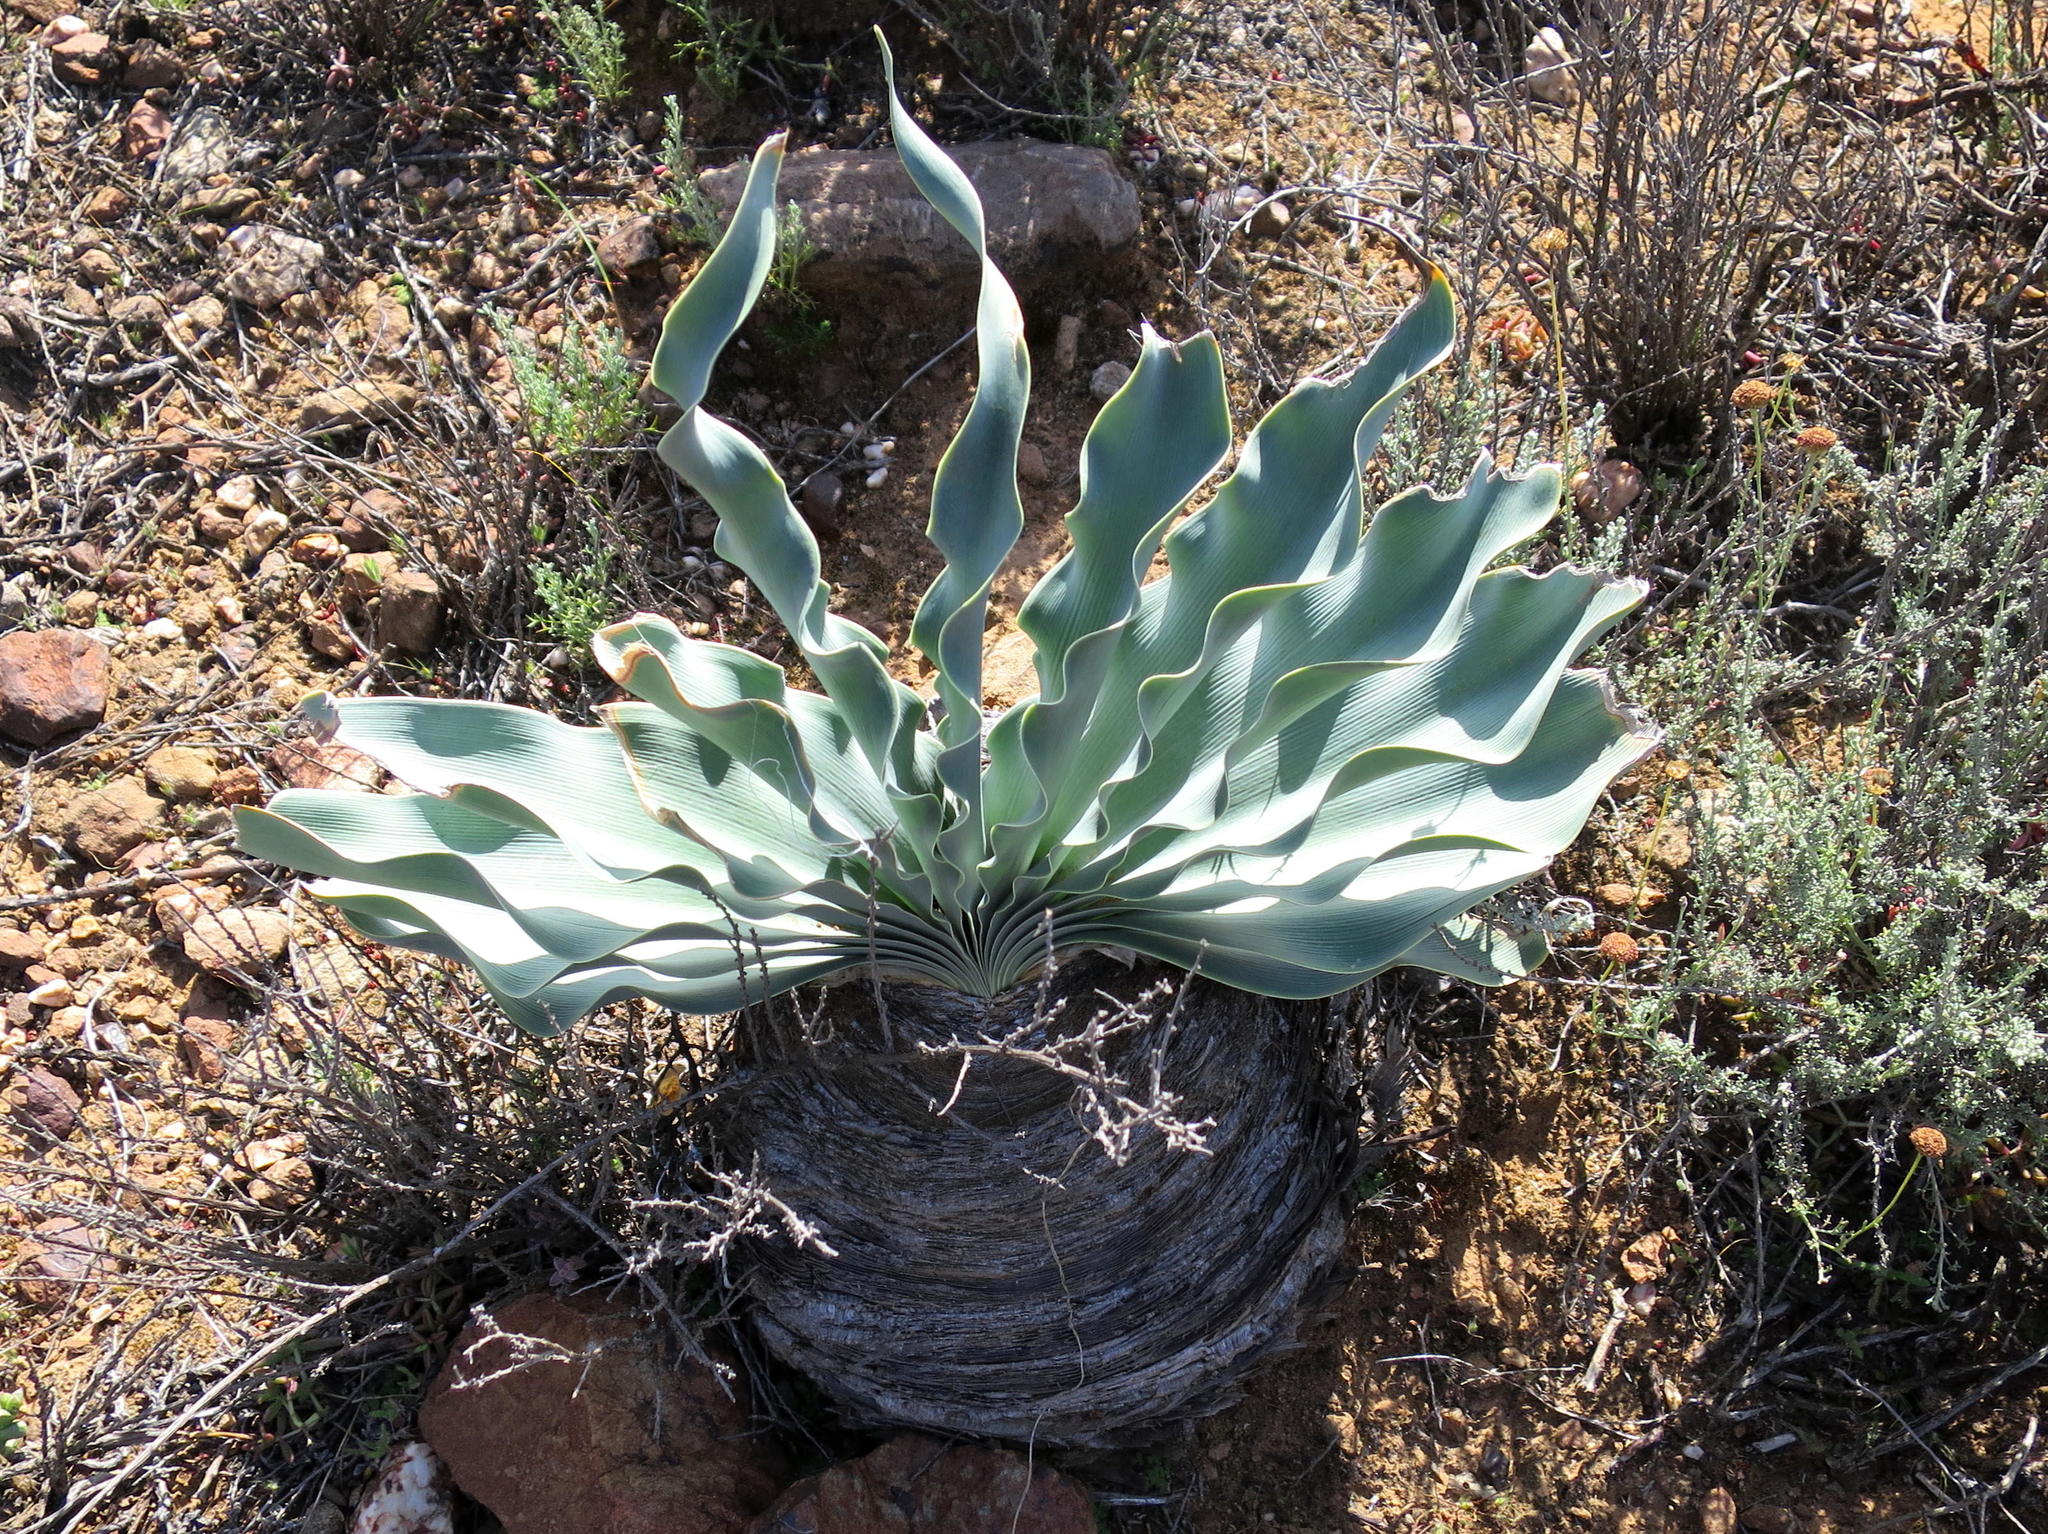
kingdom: Plantae
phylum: Tracheophyta
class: Liliopsida
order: Asparagales
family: Amaryllidaceae
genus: Boophone
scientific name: Boophone disticha
